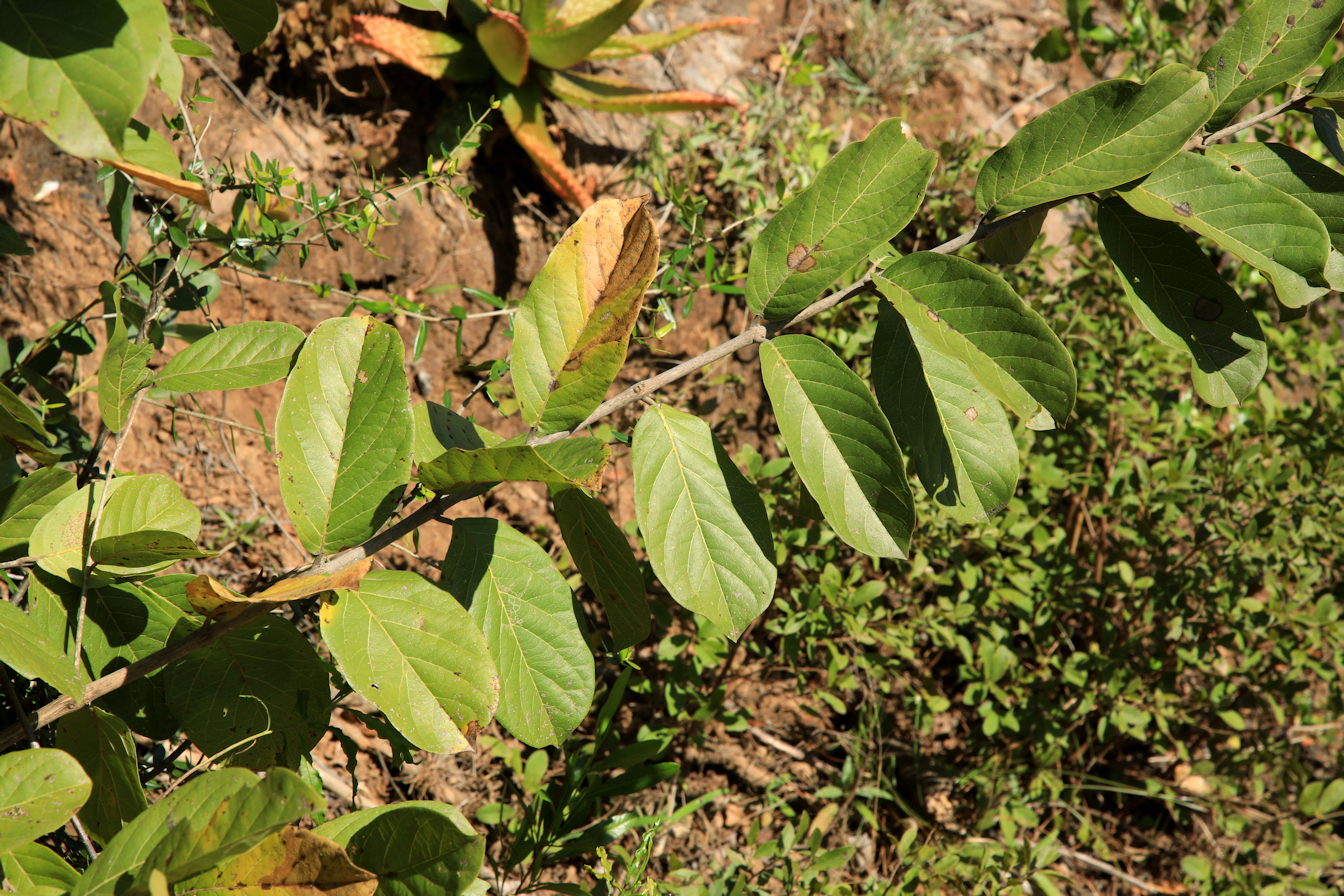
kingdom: Plantae
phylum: Tracheophyta
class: Magnoliopsida
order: Myrtales
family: Combretaceae
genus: Combretum
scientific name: Combretum zeyheri
